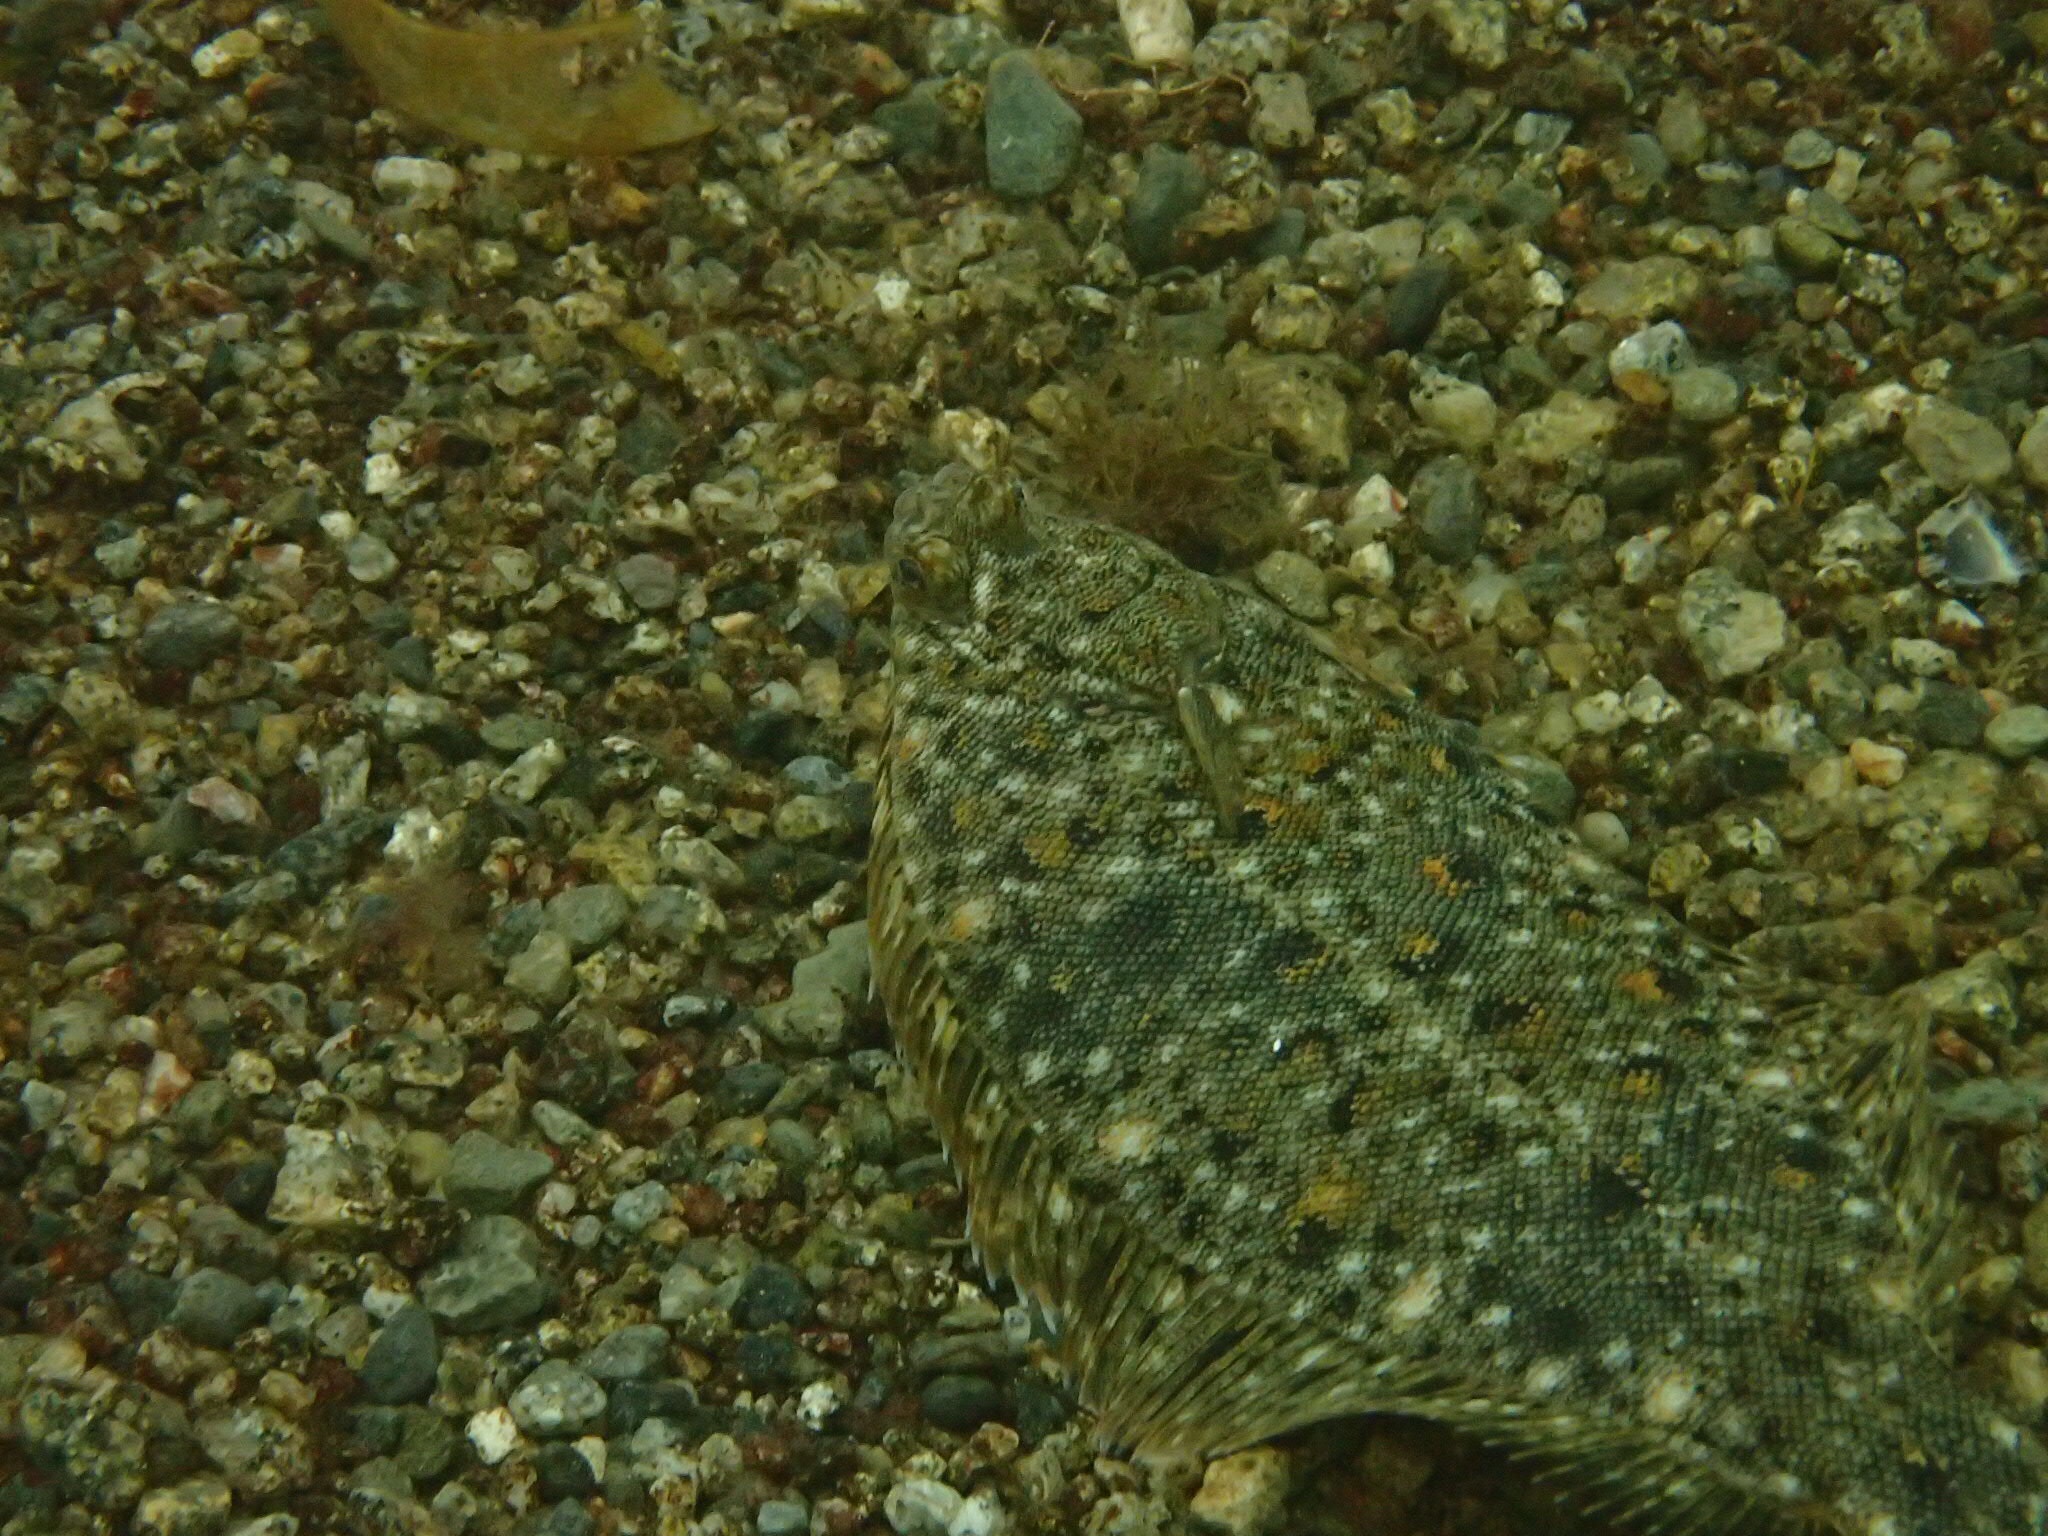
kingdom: Animalia
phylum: Chordata
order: Pleuronectiformes
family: Pleuronectidae
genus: Pseudopleuronectes
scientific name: Pseudopleuronectes americanus
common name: Black backs
